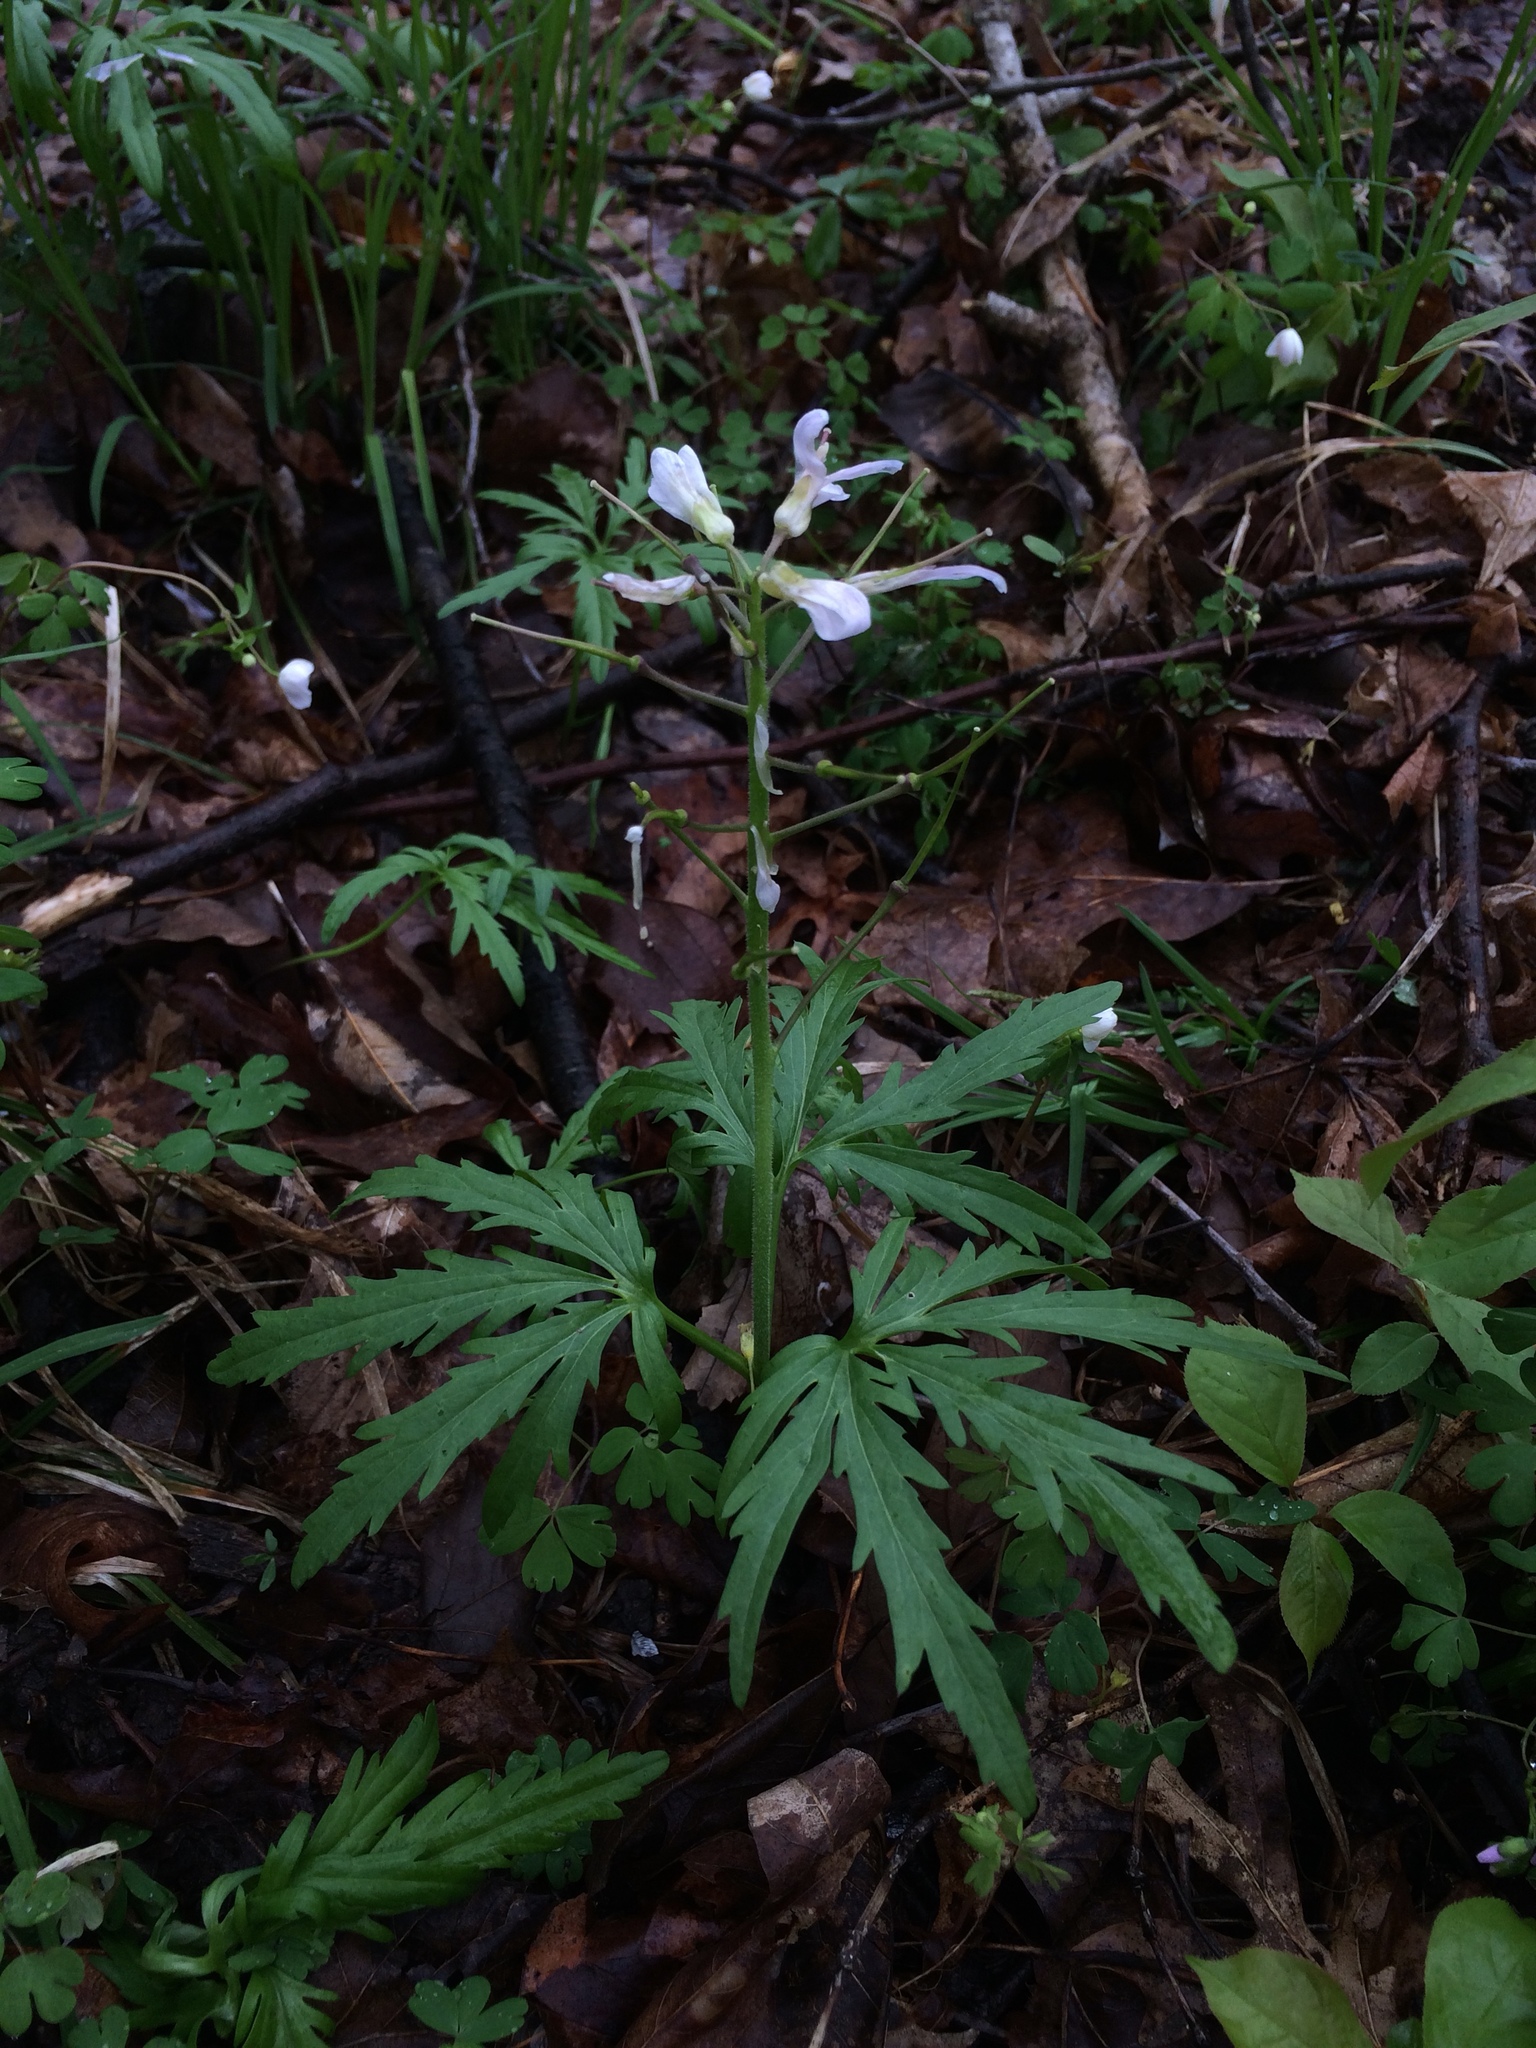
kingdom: Plantae
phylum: Tracheophyta
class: Magnoliopsida
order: Brassicales
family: Brassicaceae
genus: Cardamine
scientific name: Cardamine concatenata
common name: Cut-leaf toothcup
